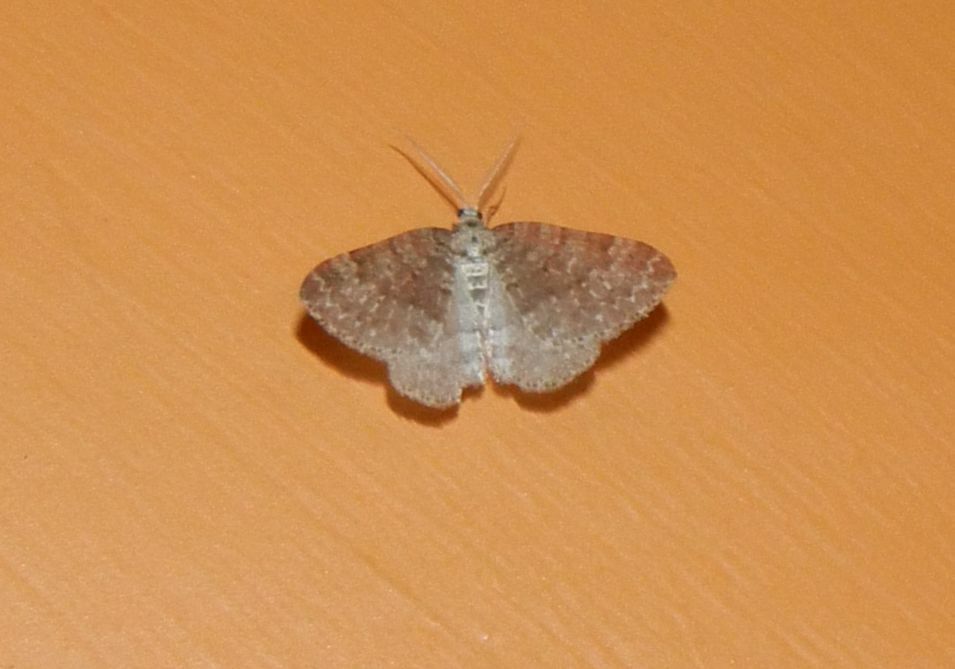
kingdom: Animalia
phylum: Arthropoda
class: Insecta
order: Lepidoptera
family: Geometridae
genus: Colostygia
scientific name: Colostygia multistrigaria
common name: Mottled grey
